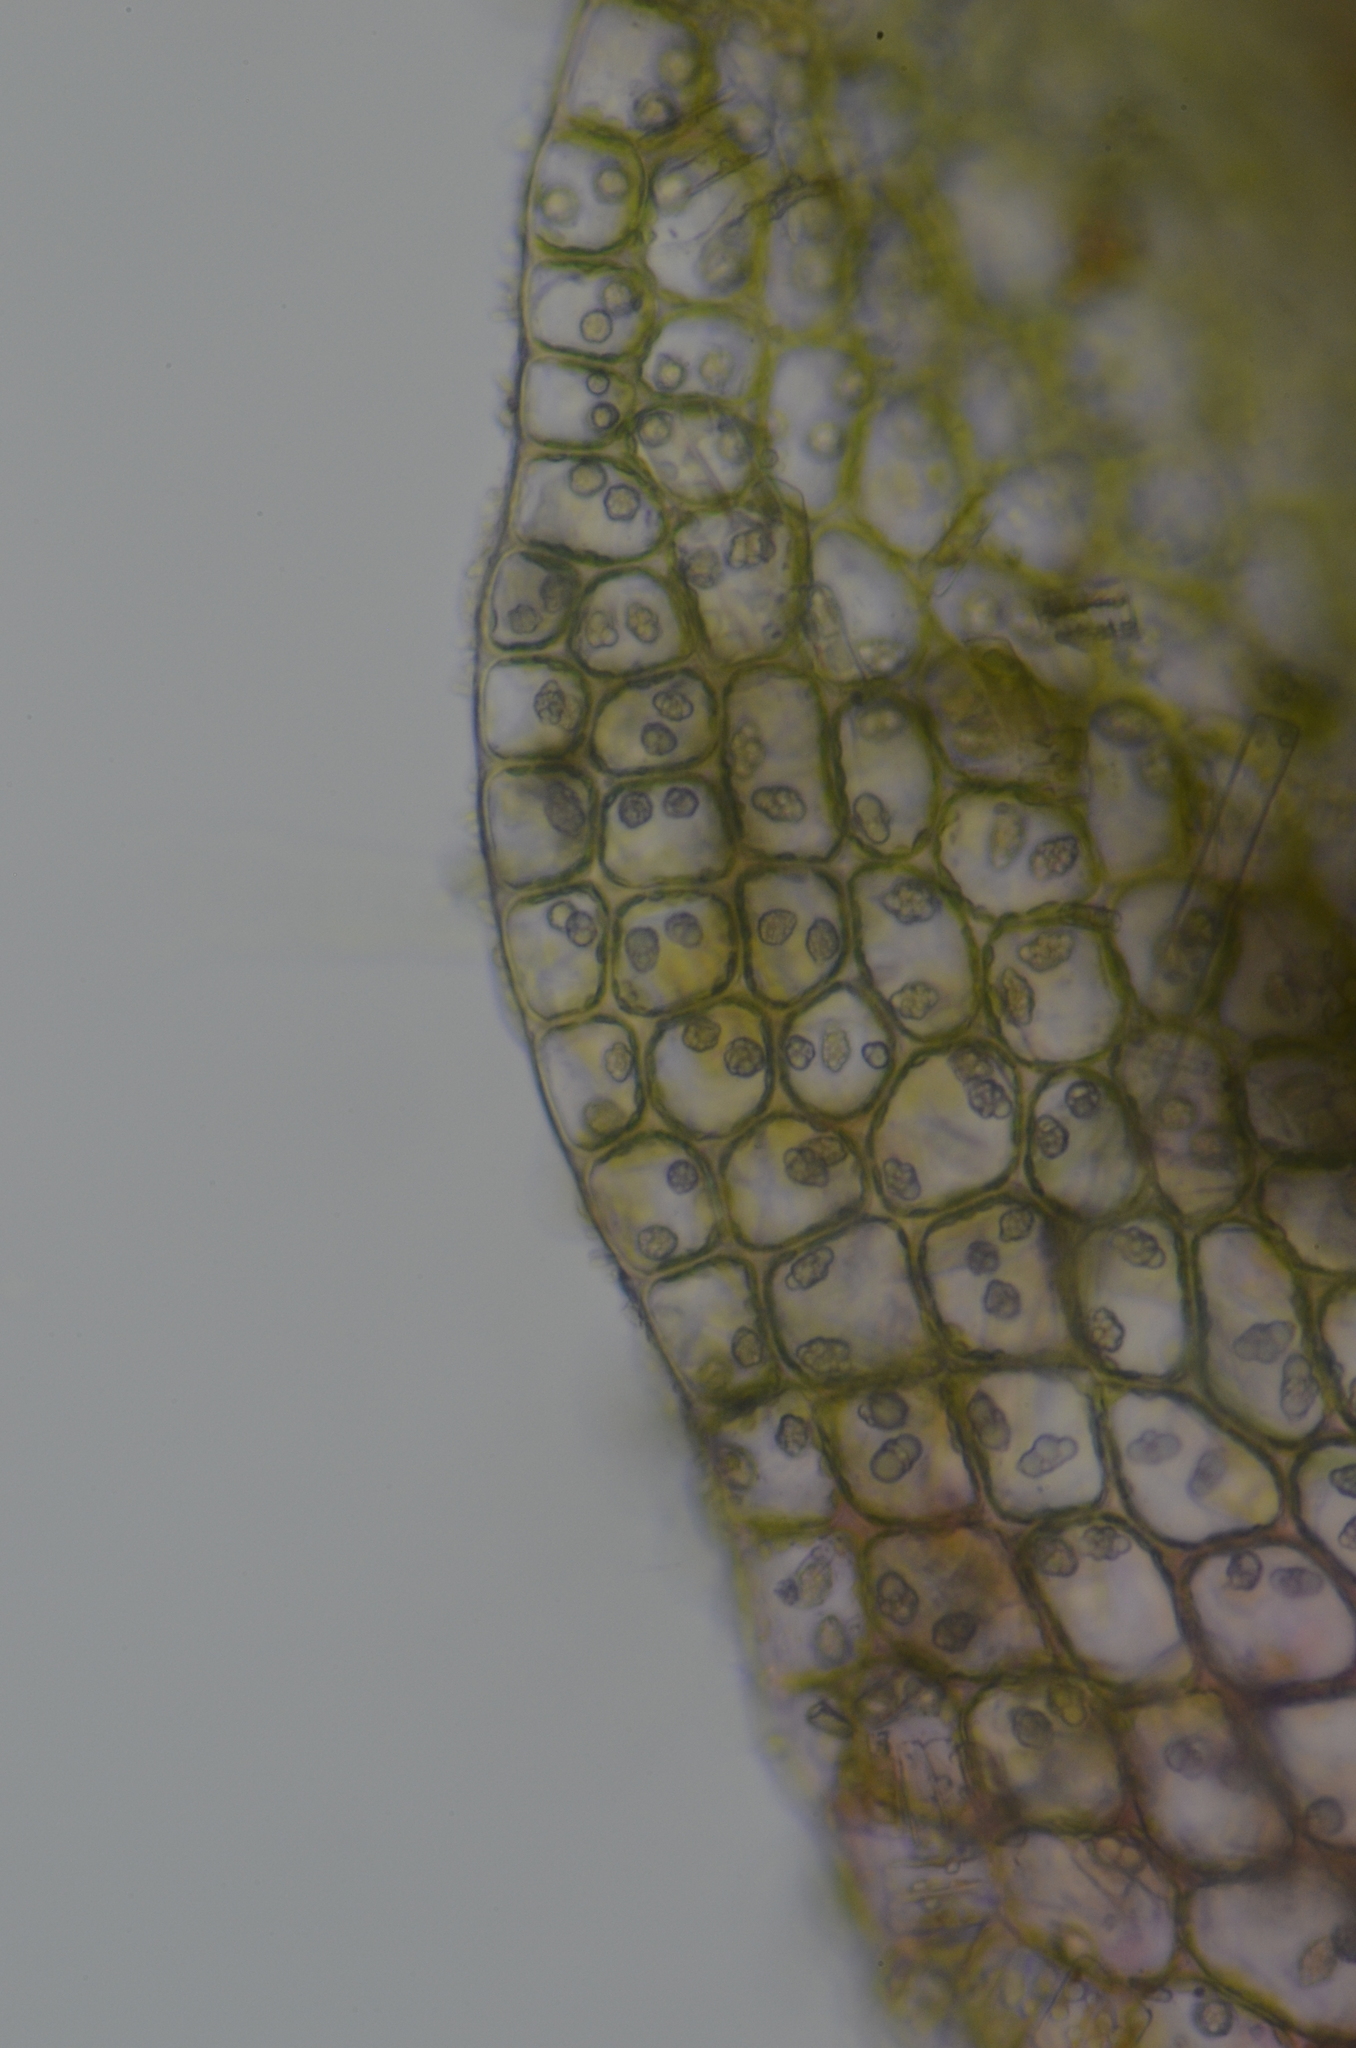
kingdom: Plantae
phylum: Marchantiophyta
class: Jungermanniopsida
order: Jungermanniales
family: Solenostomataceae
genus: Solenostoma
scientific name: Solenostoma fusiforme
